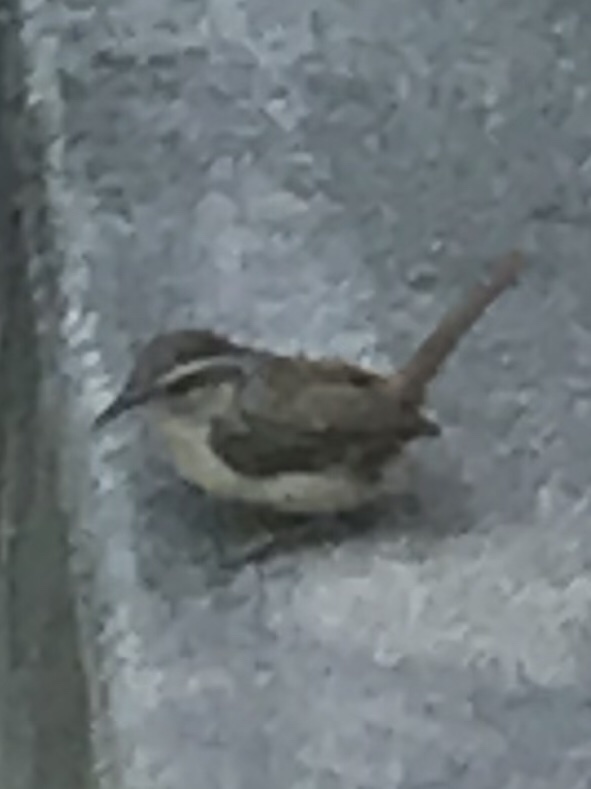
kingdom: Animalia
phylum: Chordata
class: Aves
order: Passeriformes
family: Troglodytidae
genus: Thryomanes
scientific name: Thryomanes bewickii
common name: Bewick's wren
